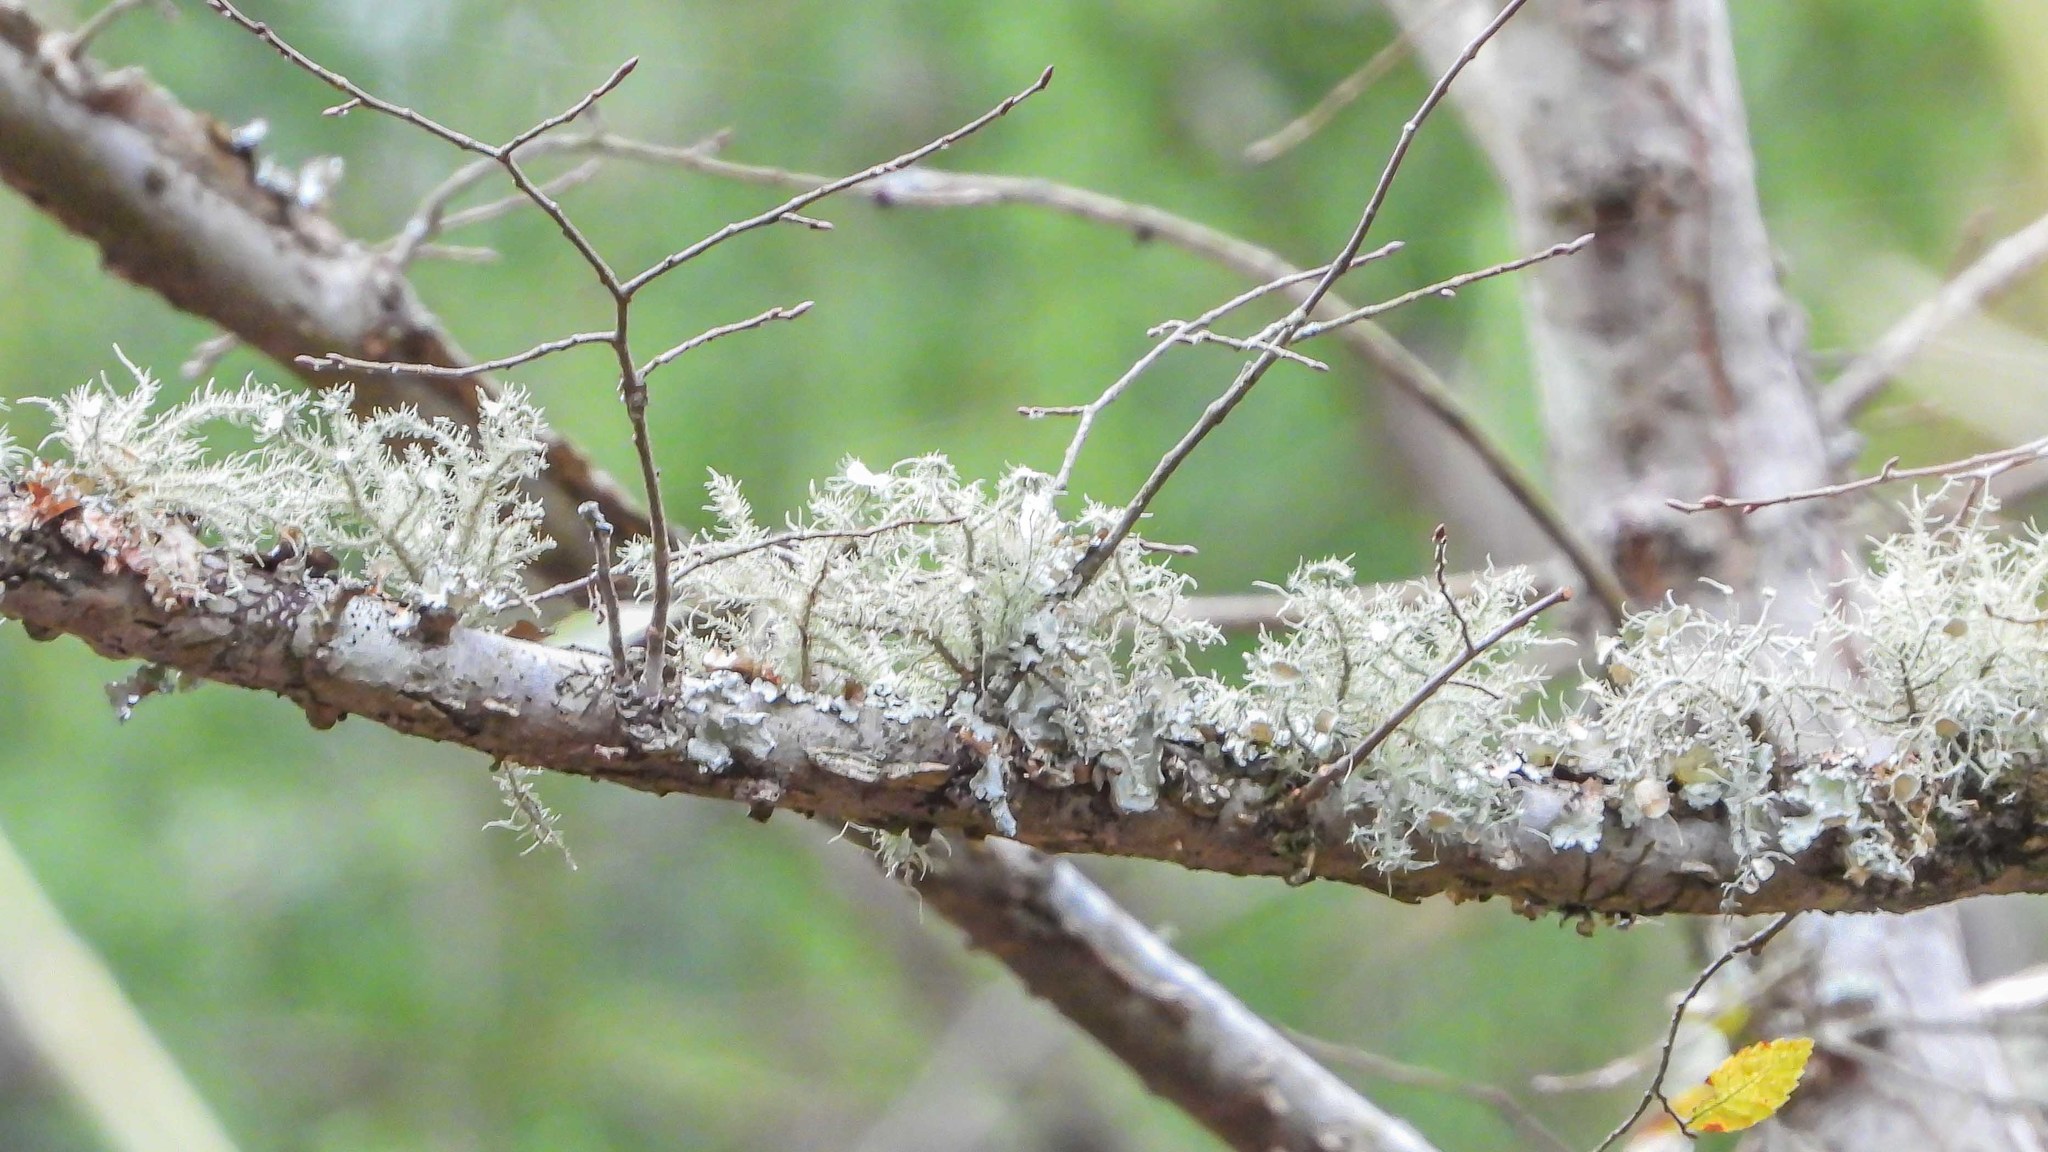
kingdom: Fungi
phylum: Ascomycota
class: Lecanoromycetes
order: Lecanorales
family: Parmeliaceae
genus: Usnea
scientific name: Usnea strigosa
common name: Bushy beard lichen
